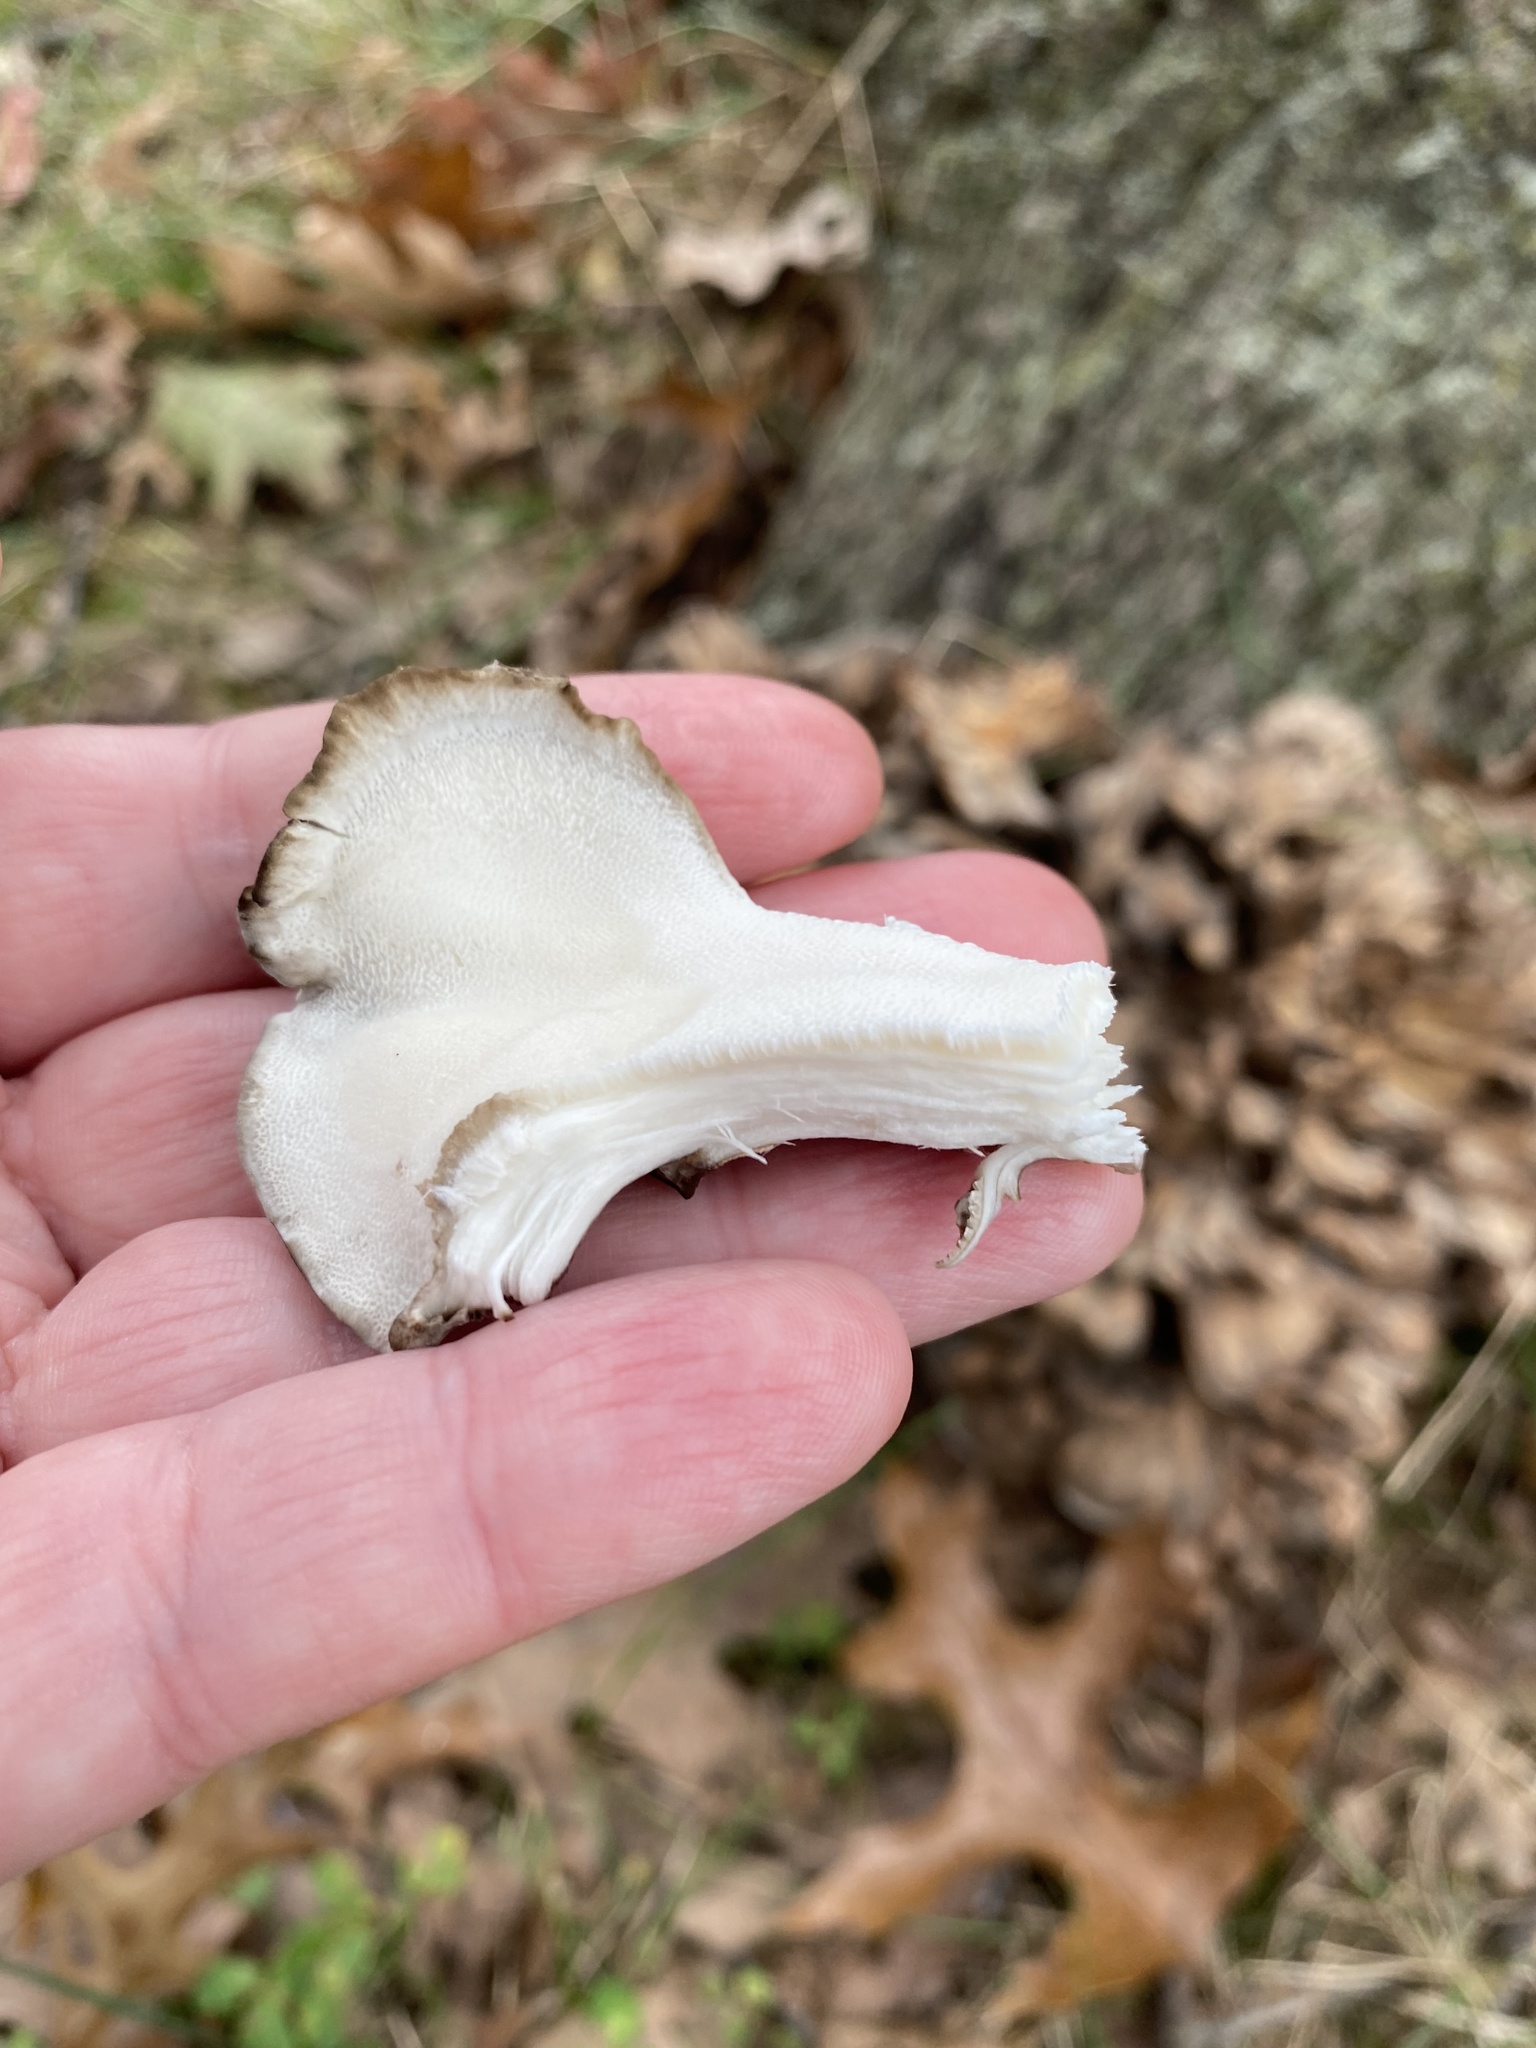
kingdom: Fungi
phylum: Basidiomycota
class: Agaricomycetes
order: Polyporales
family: Grifolaceae
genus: Grifola
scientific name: Grifola frondosa
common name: Hen of the woods
